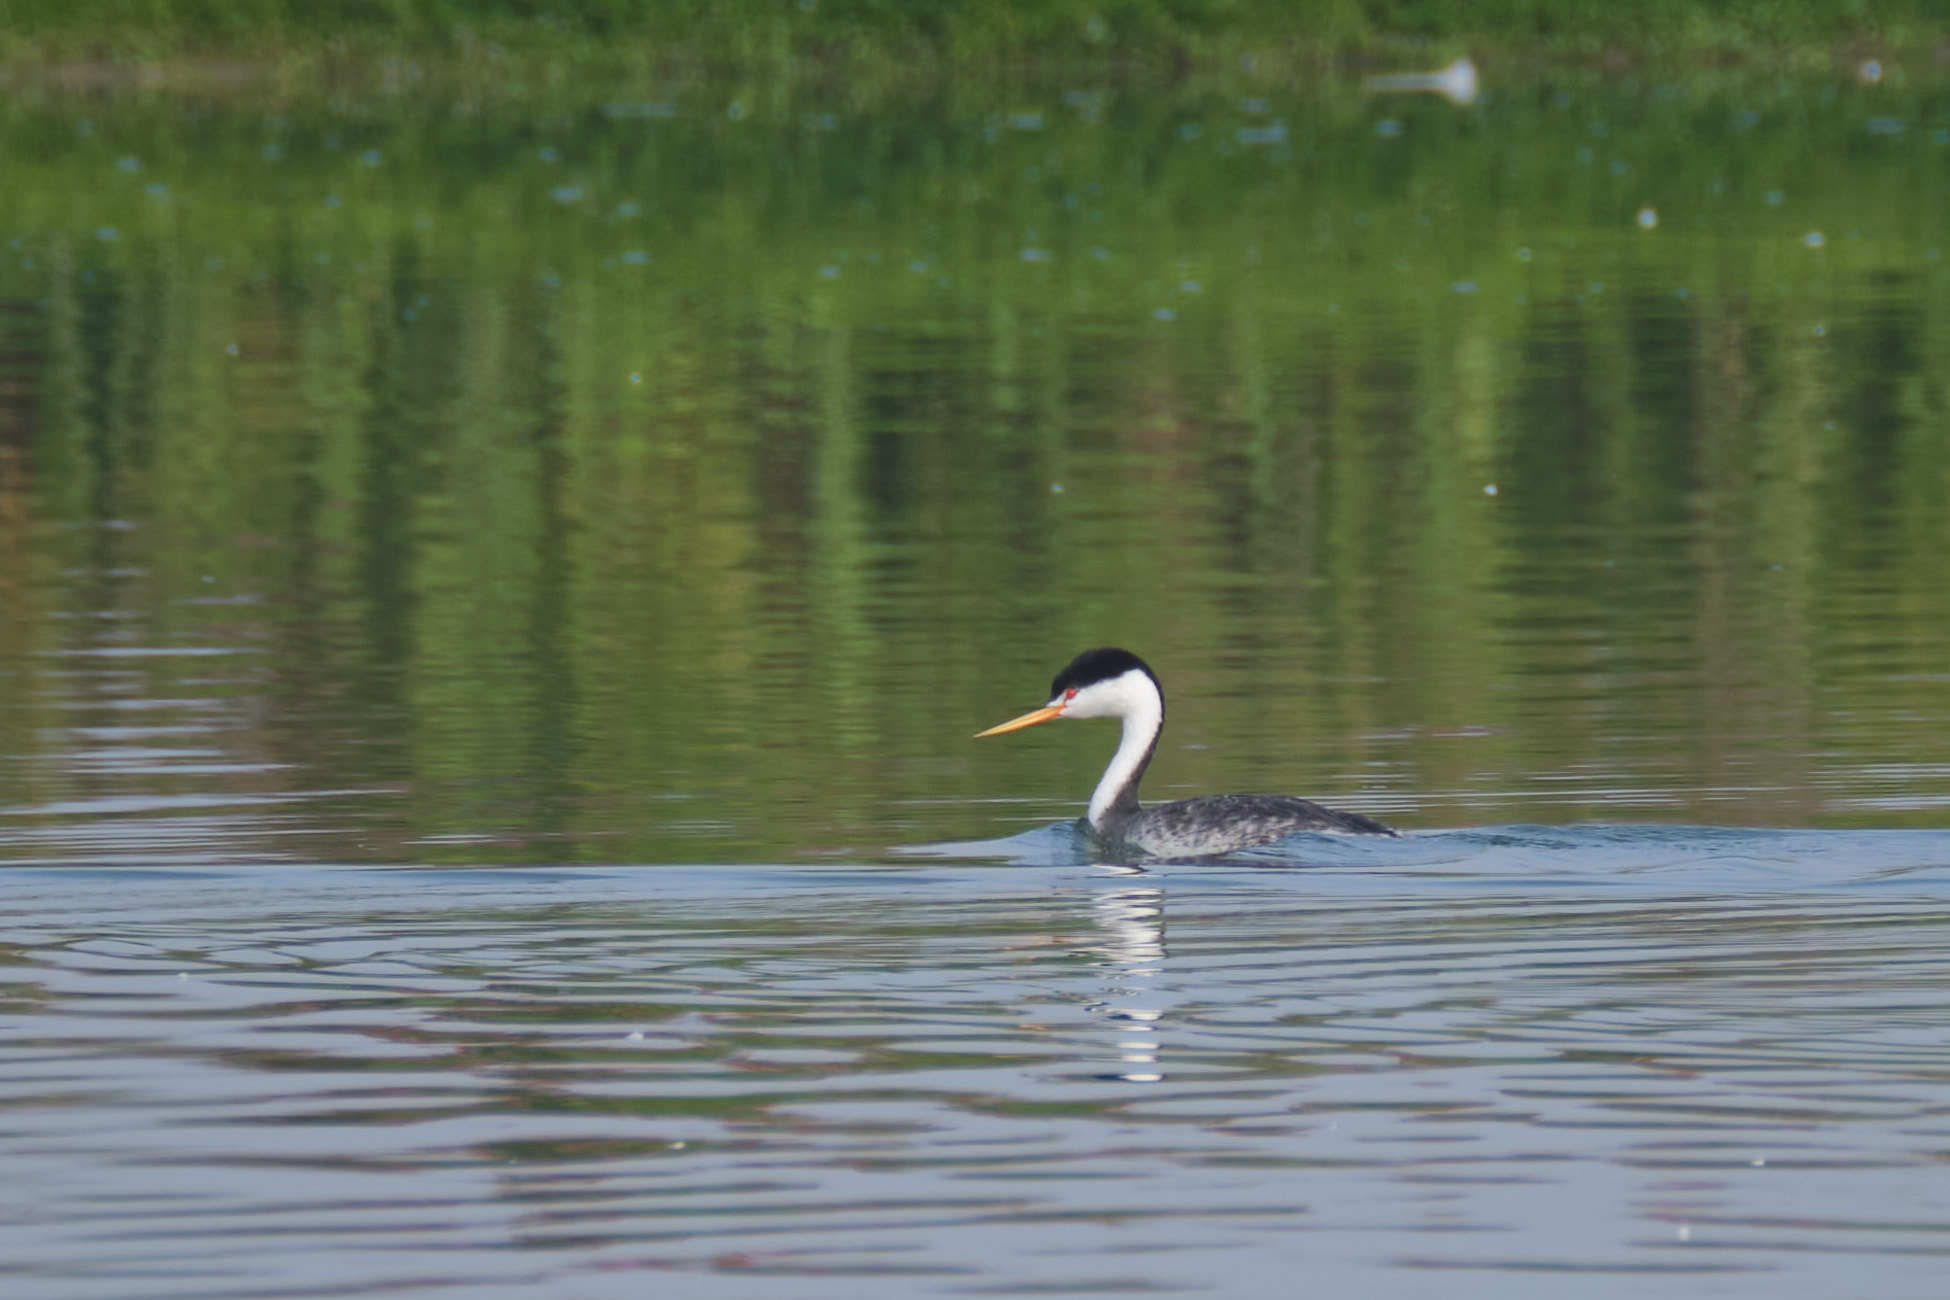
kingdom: Animalia
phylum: Chordata
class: Aves
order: Podicipediformes
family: Podicipedidae
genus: Aechmophorus
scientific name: Aechmophorus clarkii
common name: Clark's grebe
